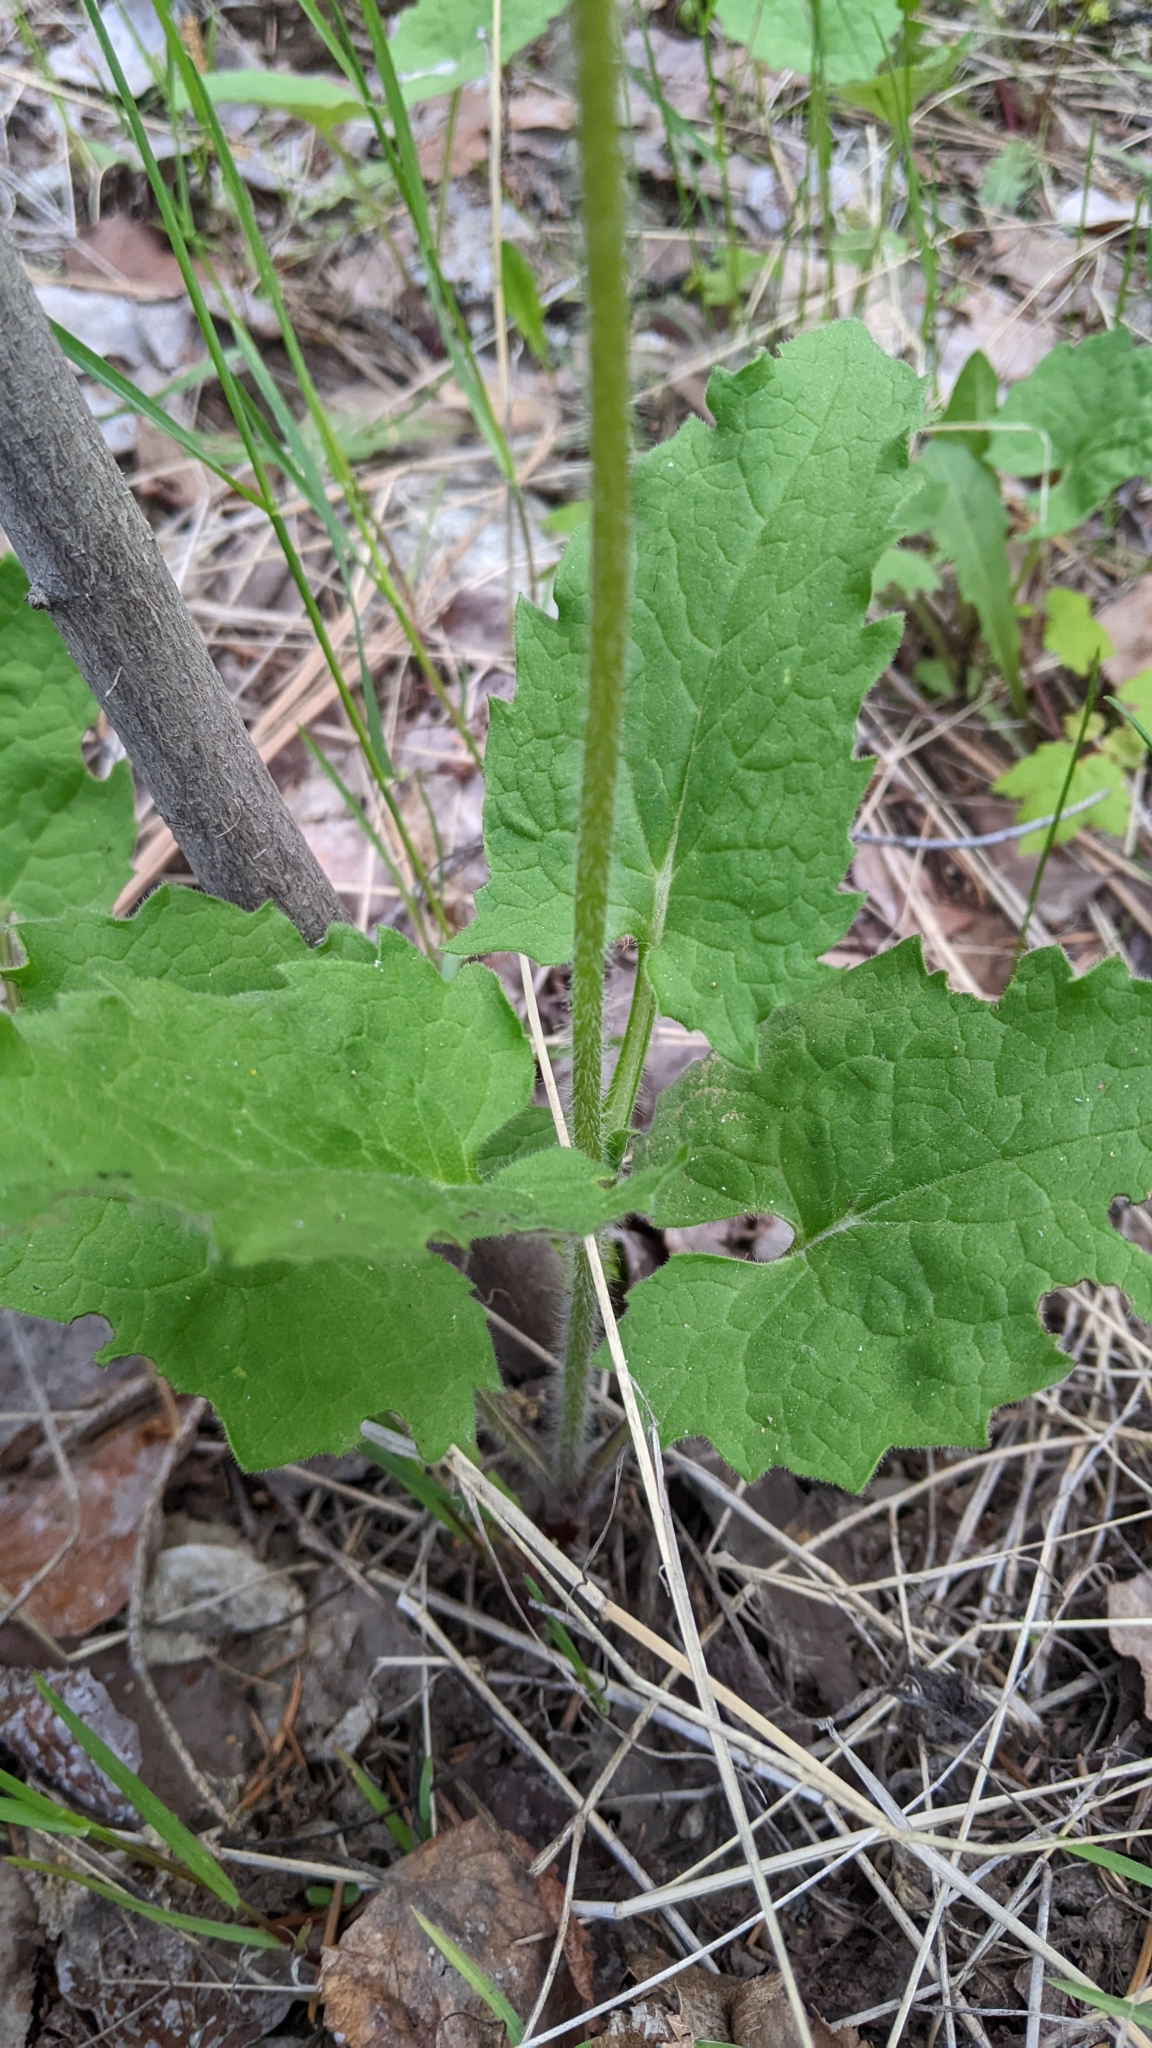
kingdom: Plantae
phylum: Tracheophyta
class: Magnoliopsida
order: Asterales
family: Asteraceae
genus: Arnica
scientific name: Arnica cordifolia
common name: Heart-leaf arnica
